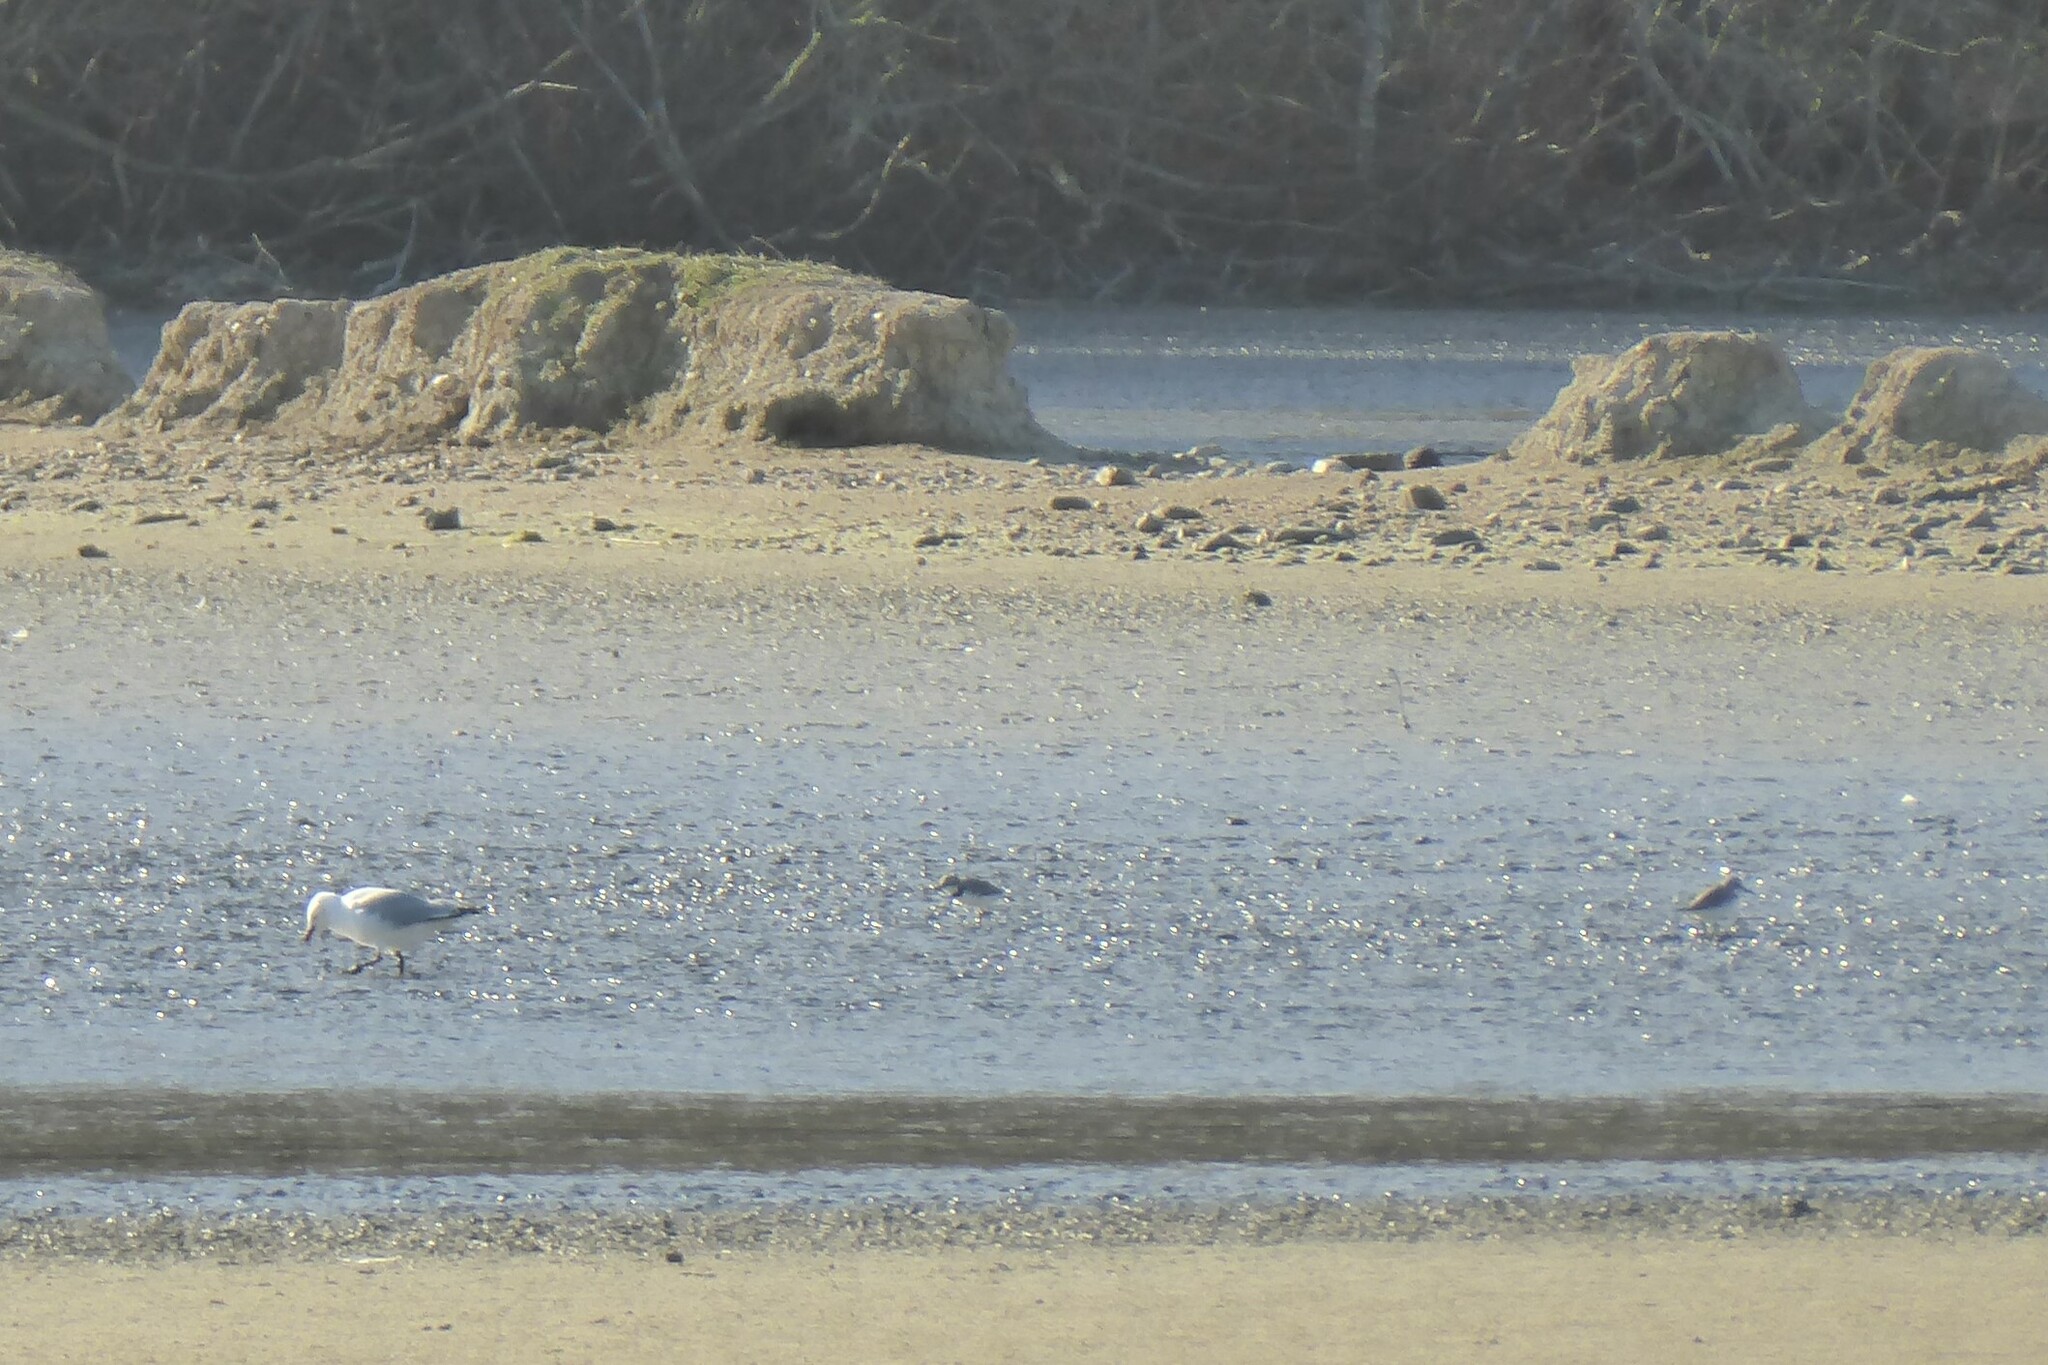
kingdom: Animalia
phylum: Chordata
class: Aves
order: Charadriiformes
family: Charadriidae
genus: Anarhynchus
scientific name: Anarhynchus frontalis
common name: Wrybill
